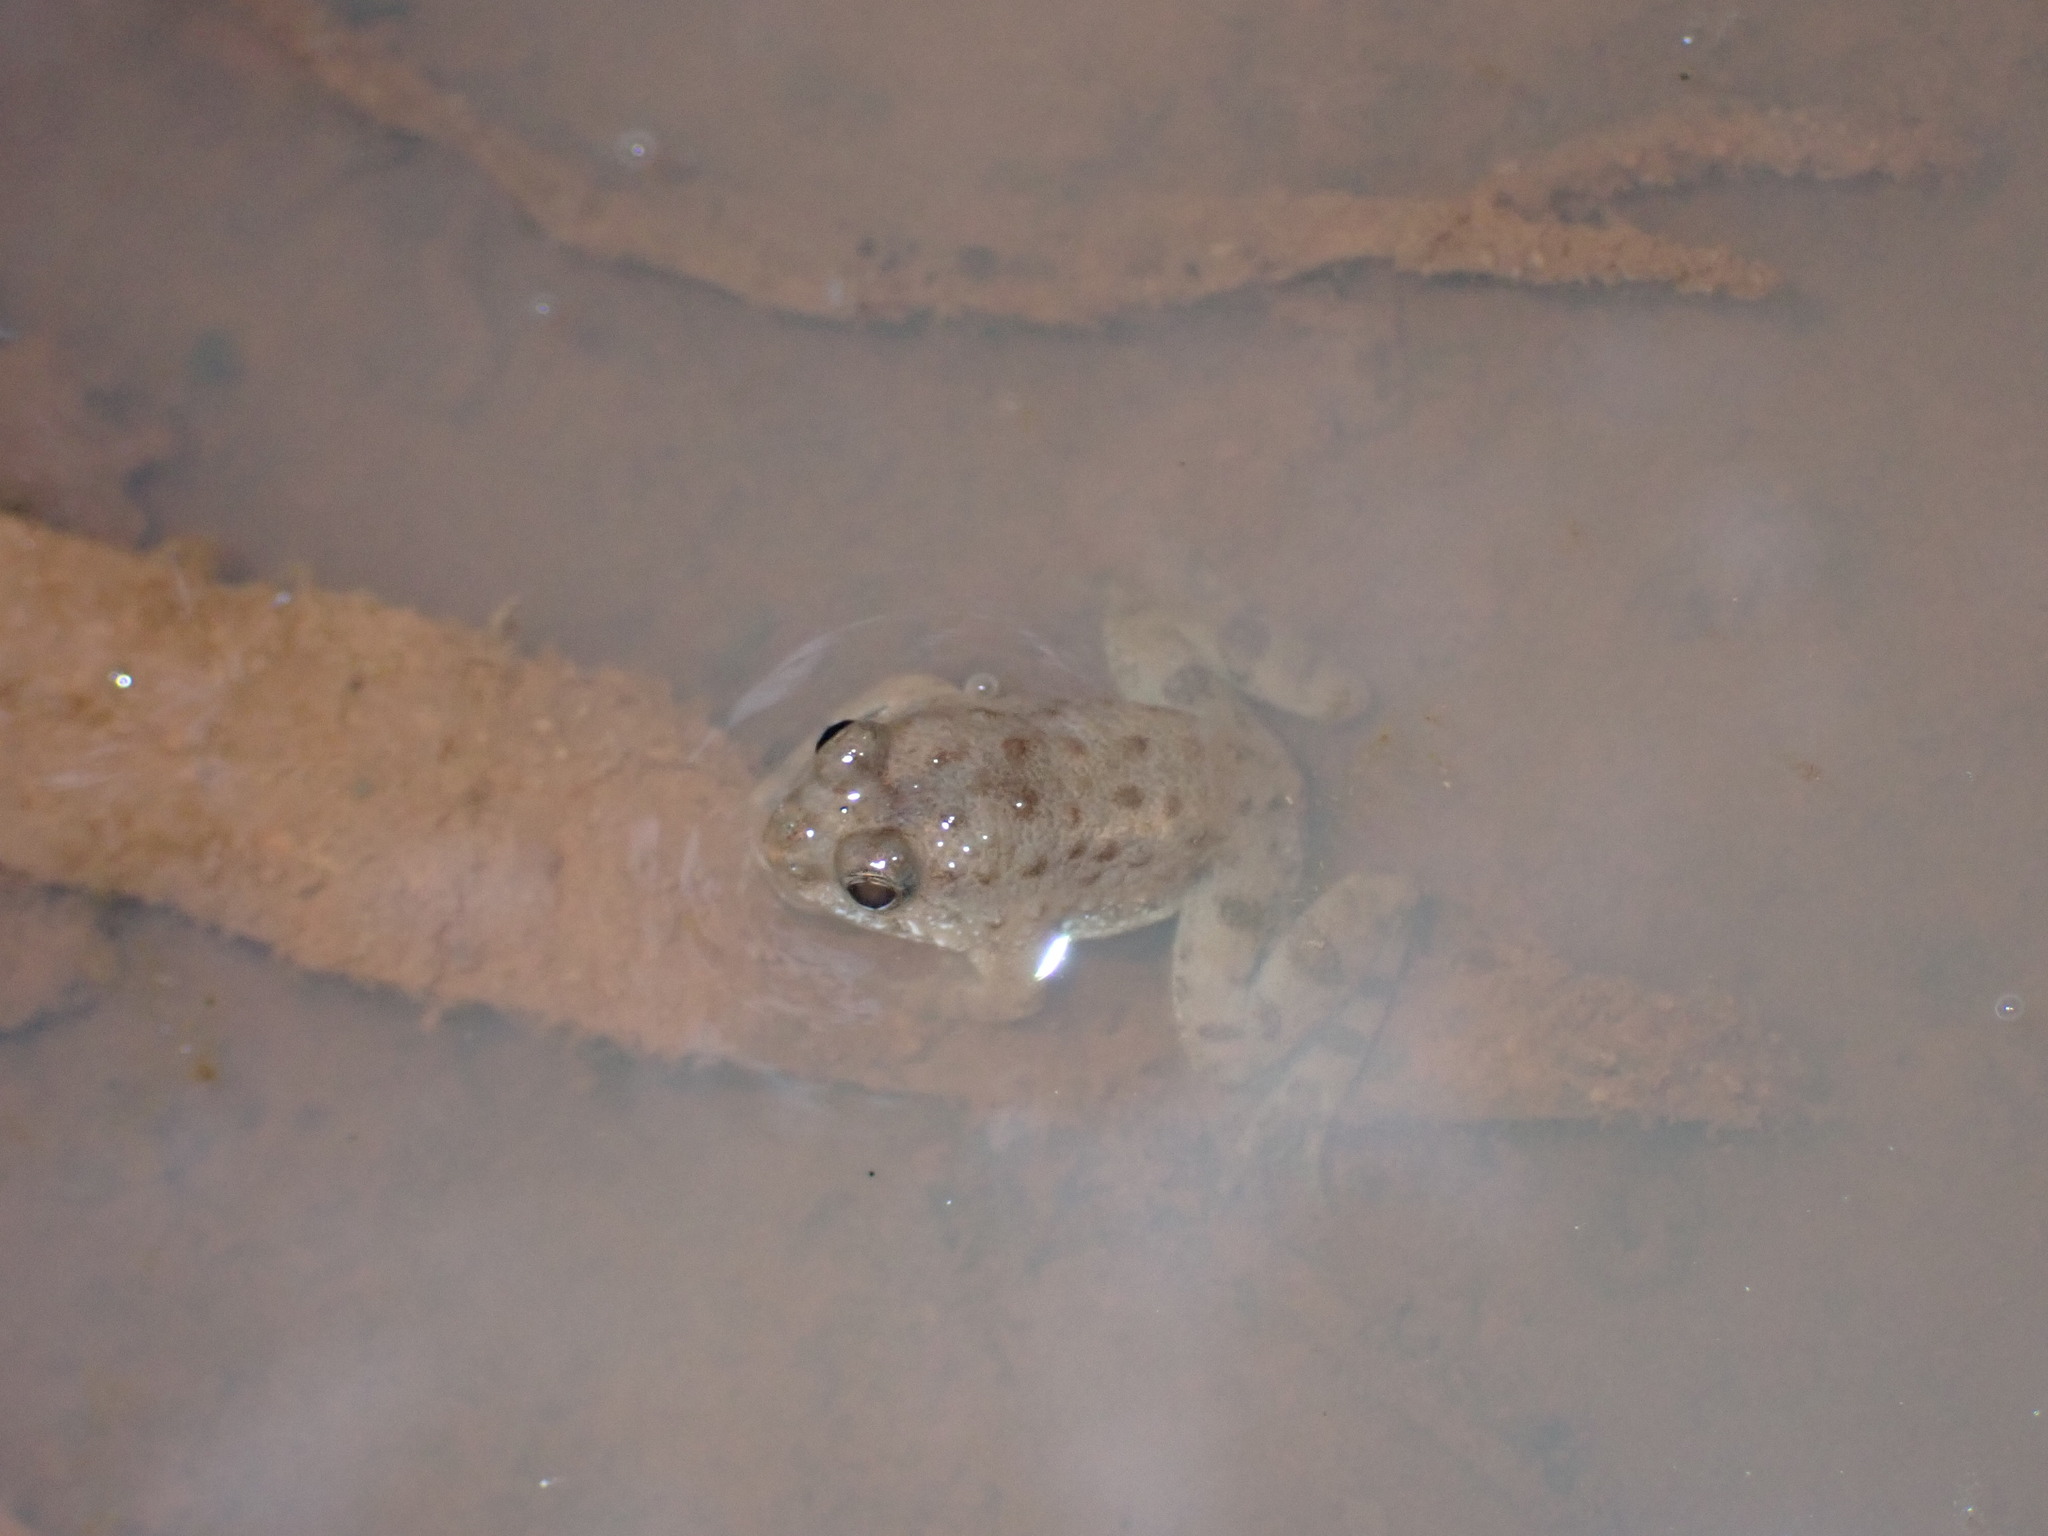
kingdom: Animalia
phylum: Chordata
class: Amphibia
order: Anura
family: Dicroglossidae
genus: Occidozyga
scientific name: Occidozyga magnapustulosa
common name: Thai oriental frog
